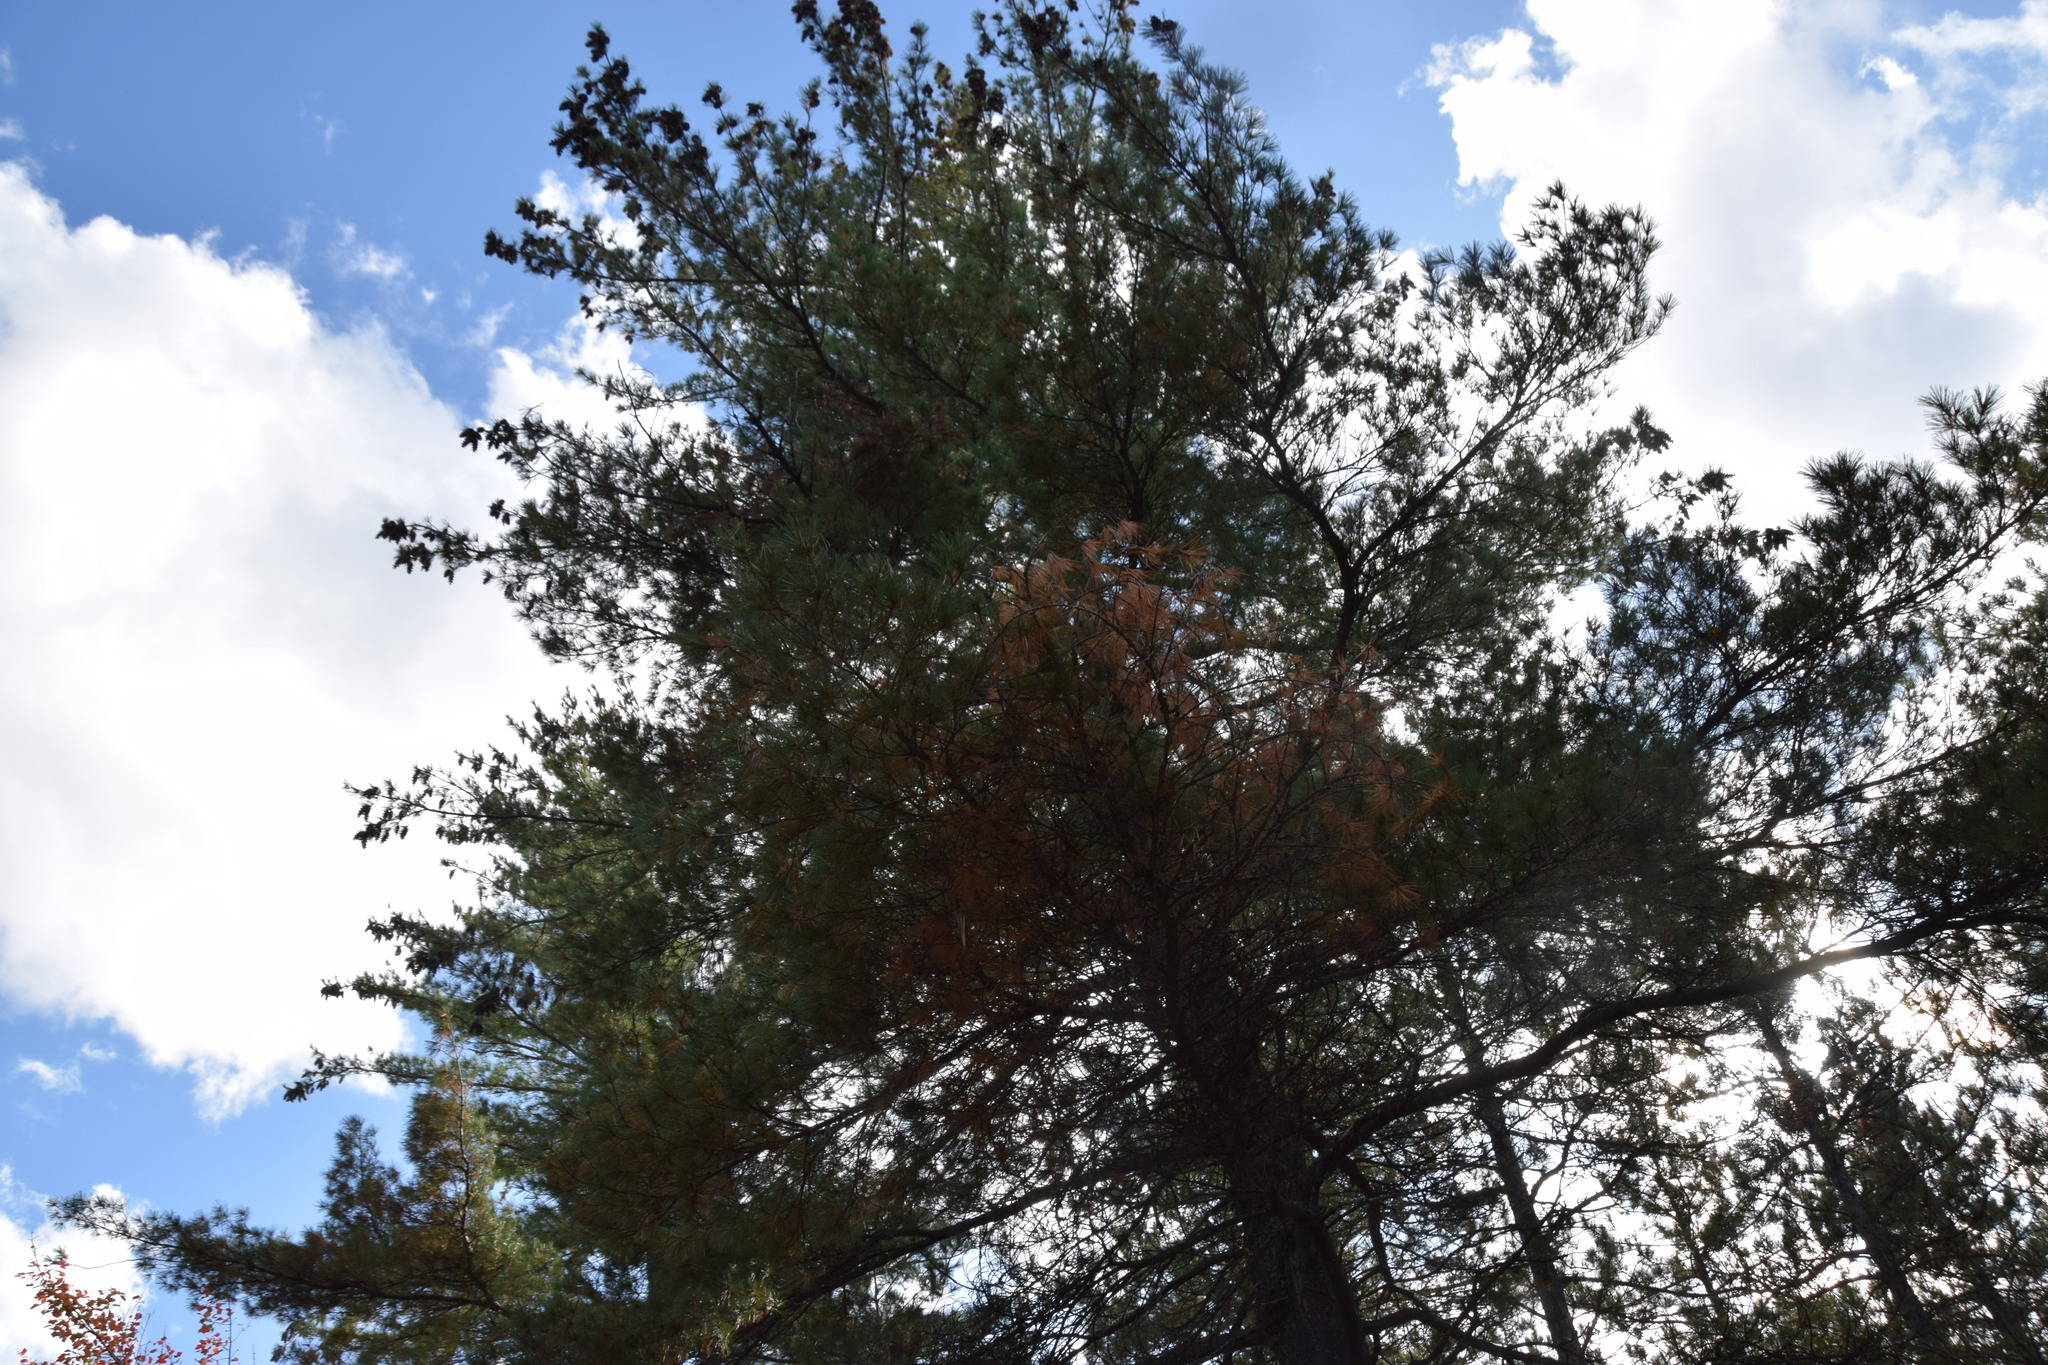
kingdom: Plantae
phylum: Tracheophyta
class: Pinopsida
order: Pinales
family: Pinaceae
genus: Pinus
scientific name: Pinus strobus
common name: Weymouth pine
